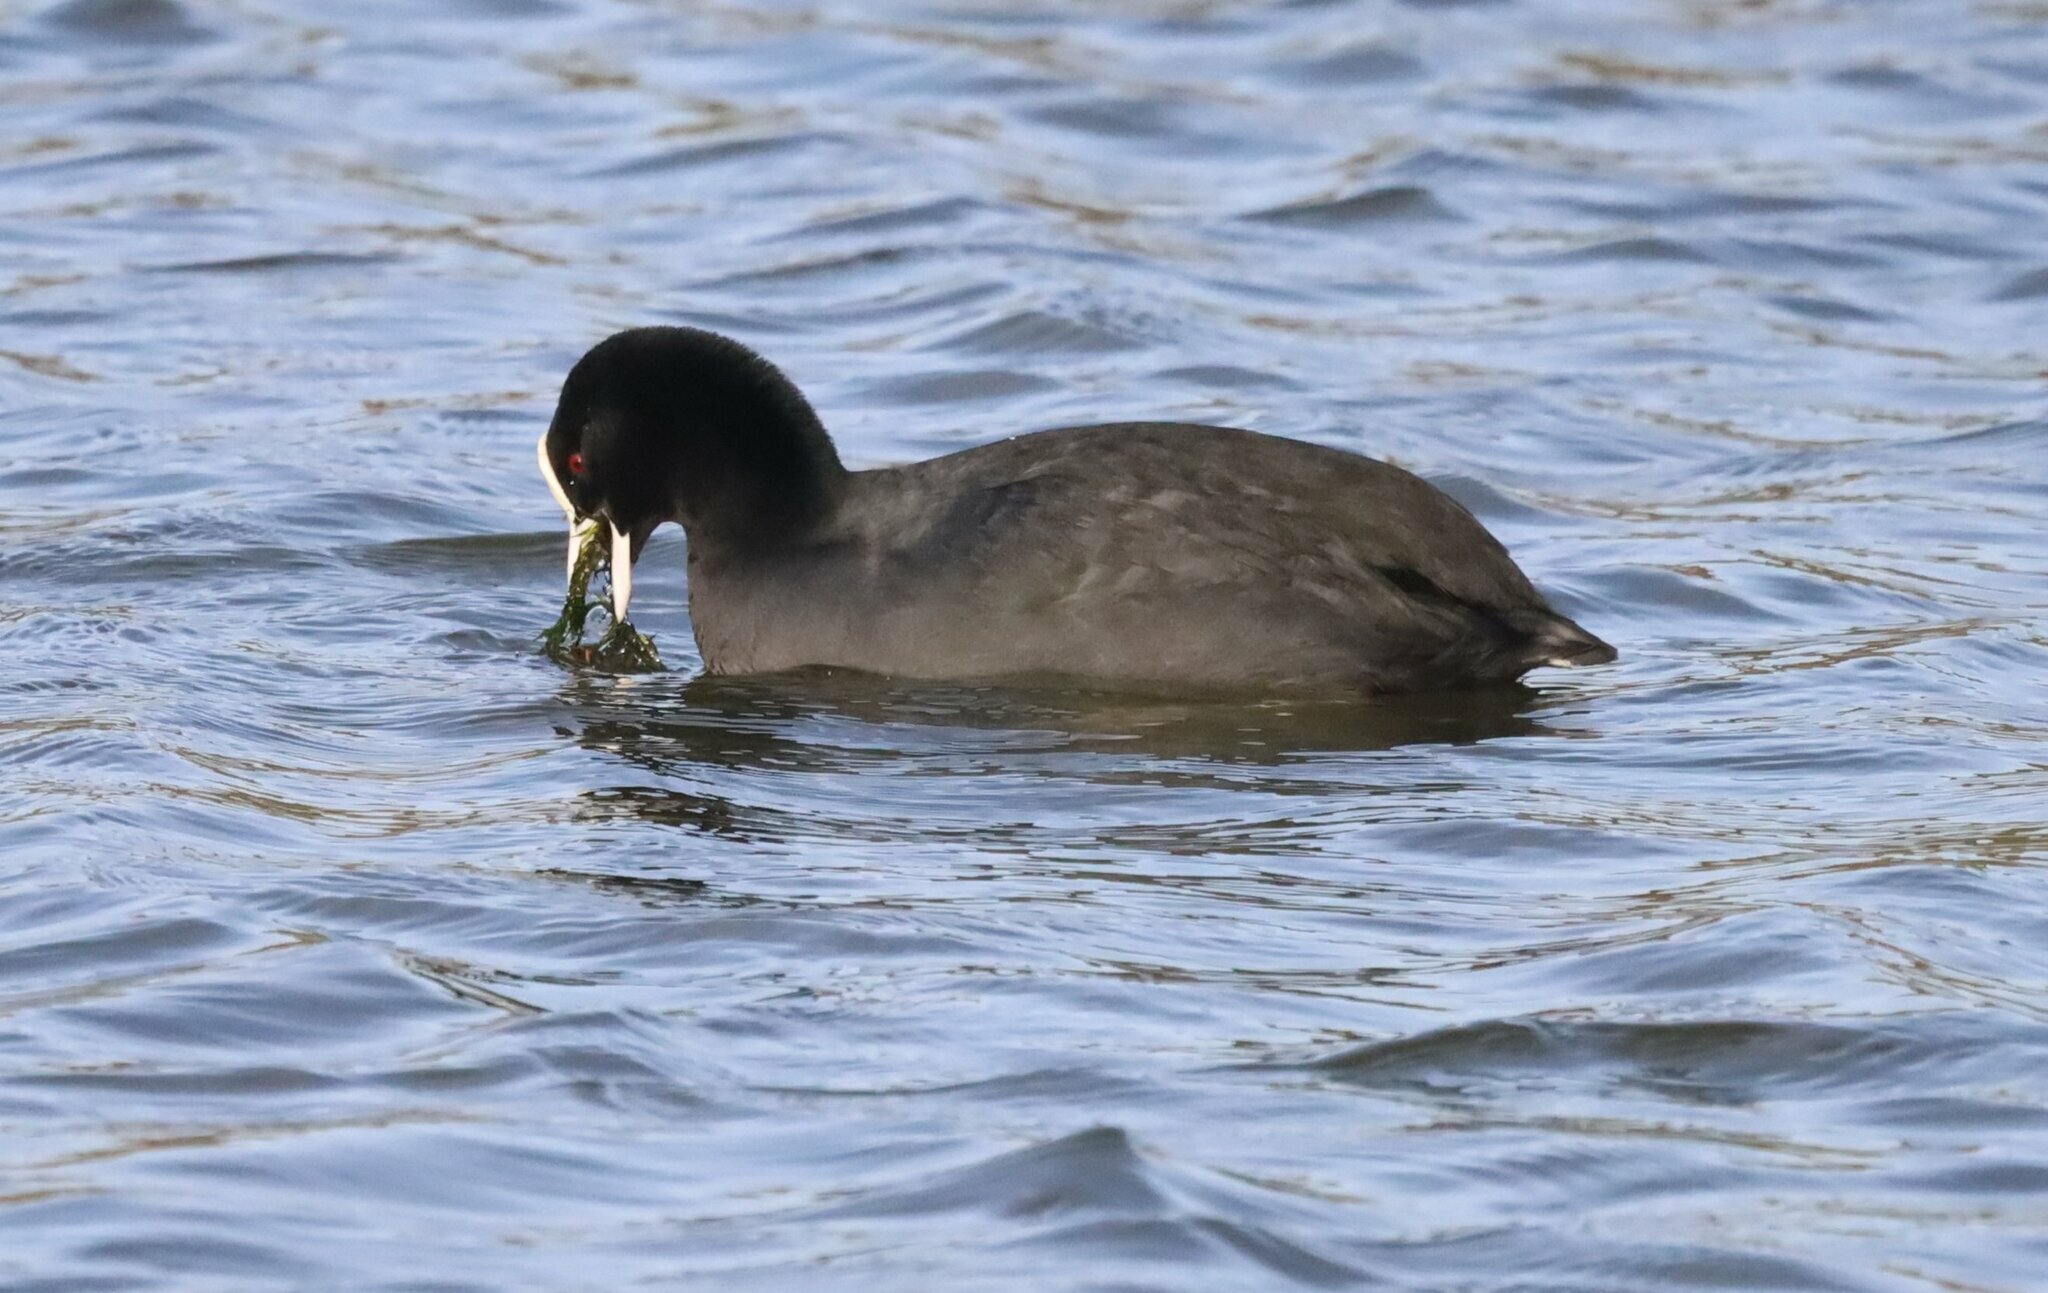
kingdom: Animalia
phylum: Chordata
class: Aves
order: Gruiformes
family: Rallidae
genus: Fulica
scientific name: Fulica atra
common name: Eurasian coot
